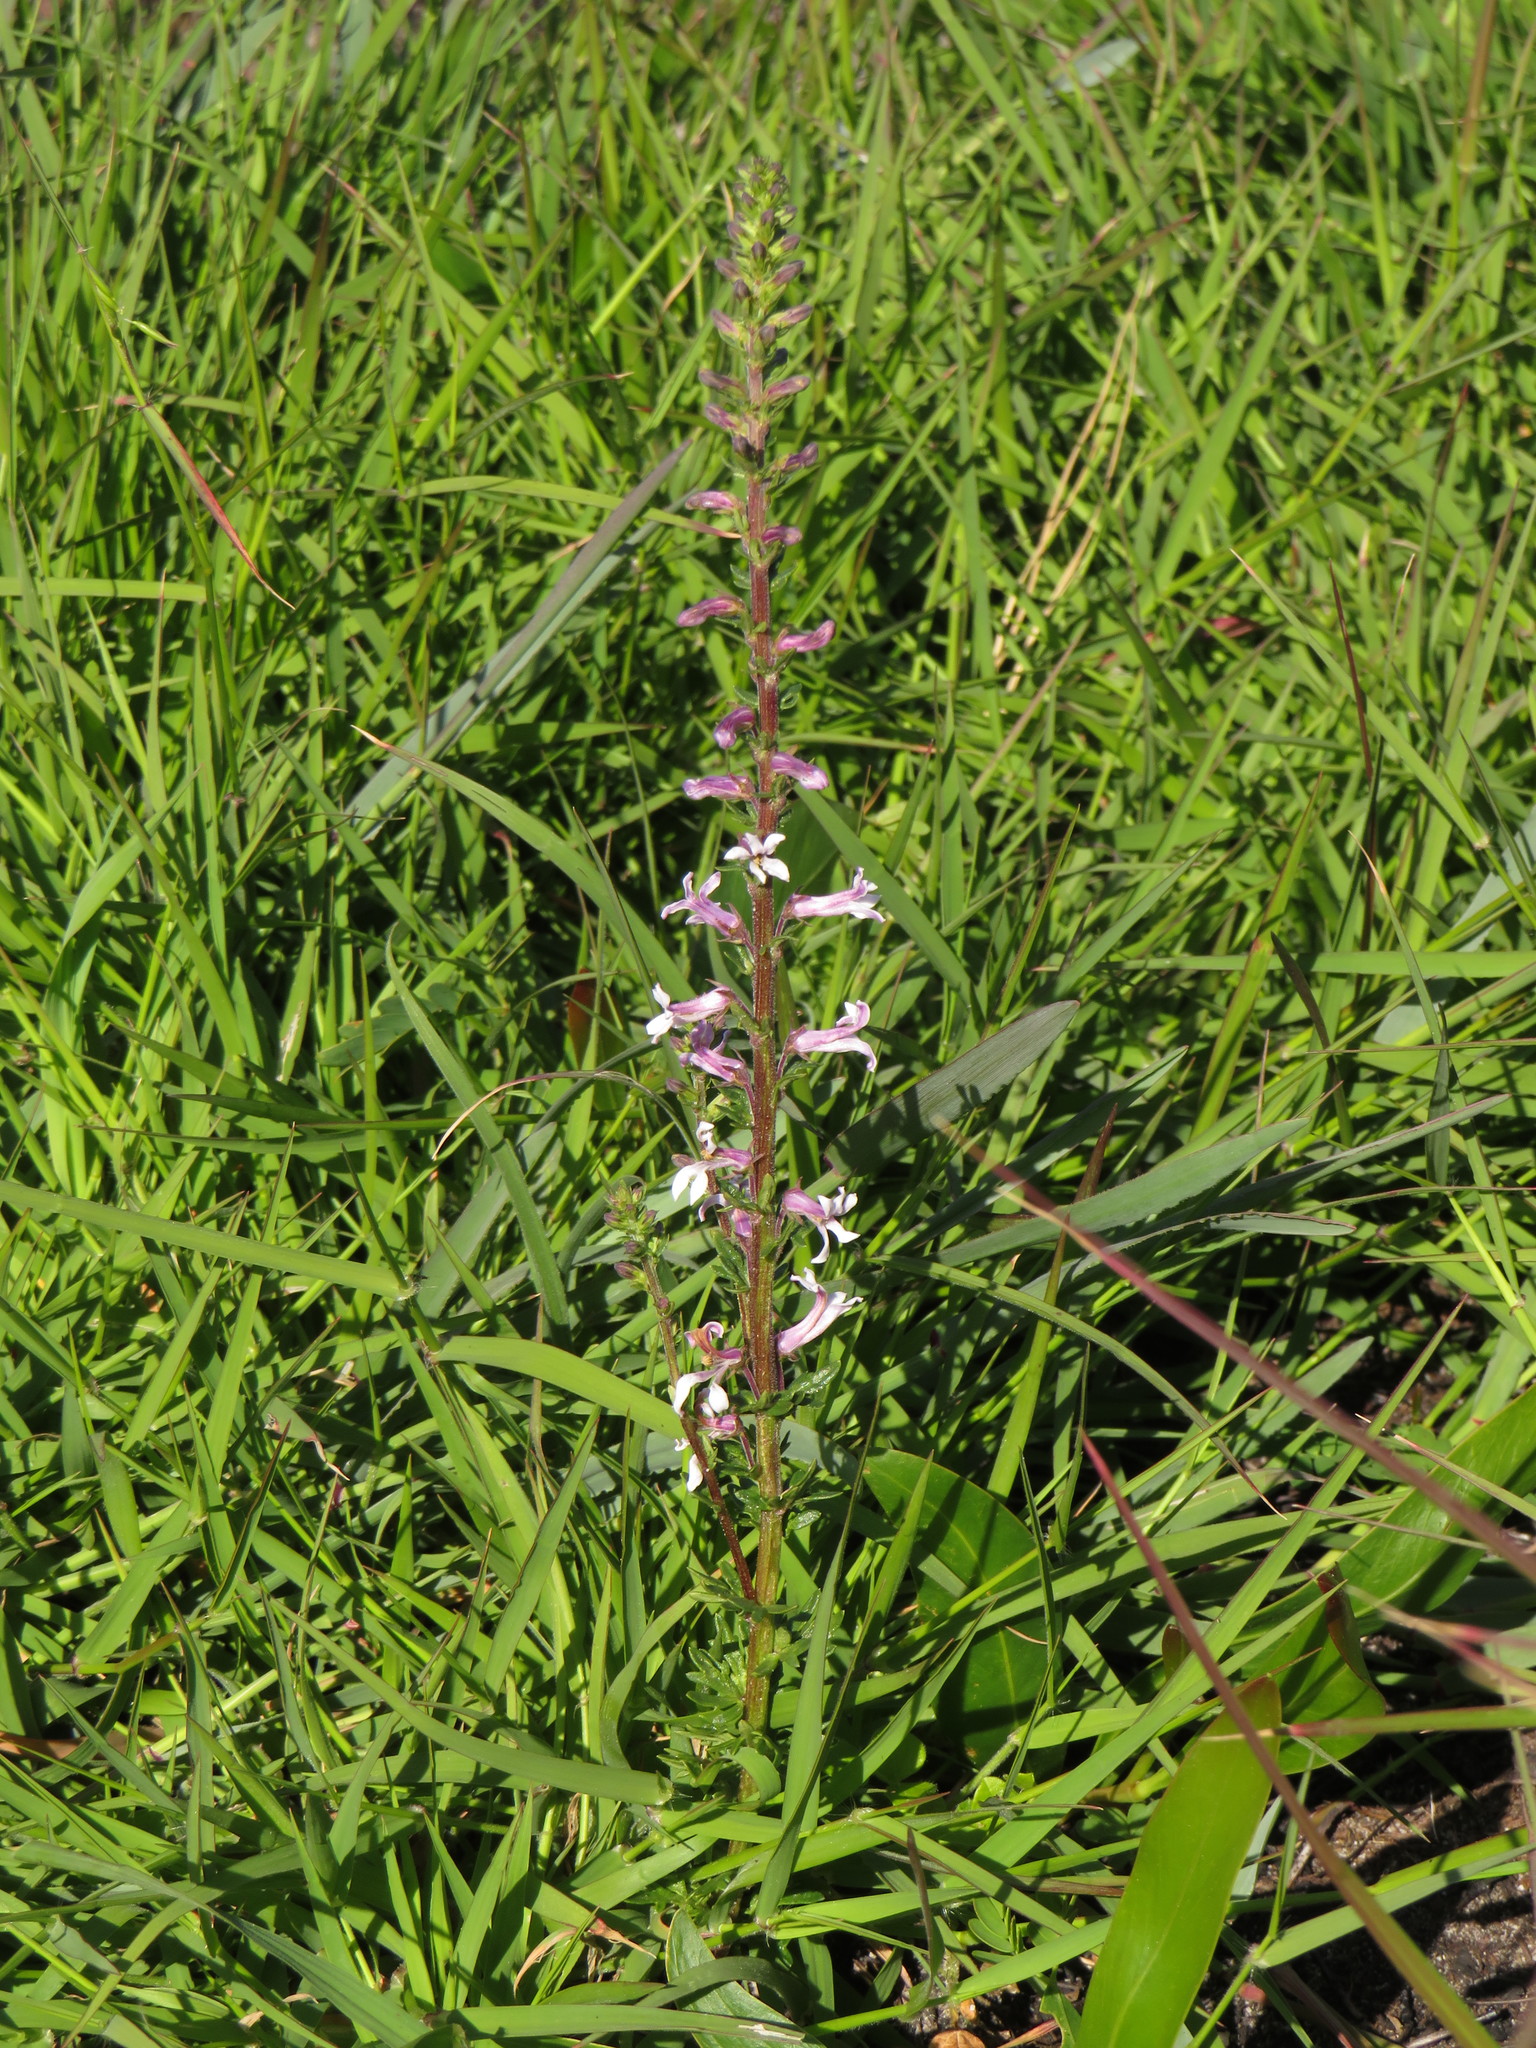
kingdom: Plantae
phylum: Tracheophyta
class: Magnoliopsida
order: Asterales
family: Campanulaceae
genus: Cyphia
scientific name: Cyphia bulbosa
